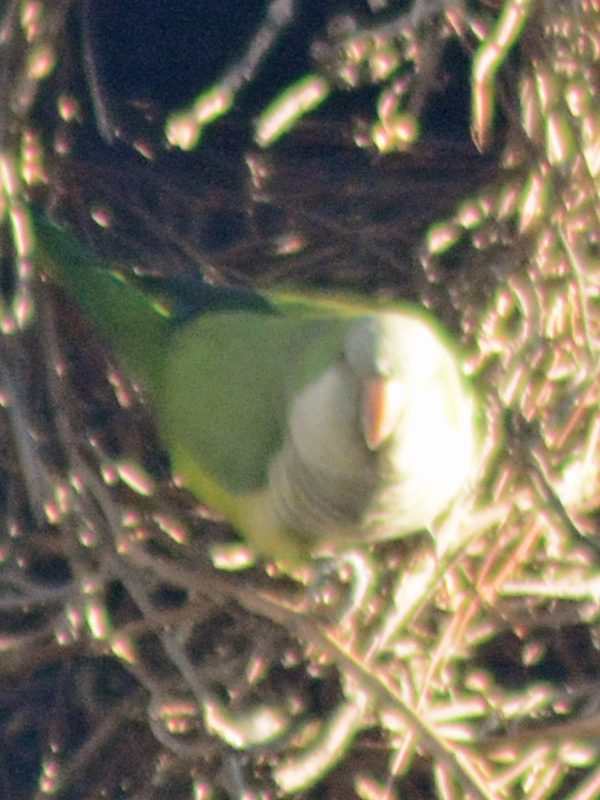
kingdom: Animalia
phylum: Chordata
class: Aves
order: Psittaciformes
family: Psittacidae
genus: Myiopsitta
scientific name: Myiopsitta monachus
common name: Monk parakeet
